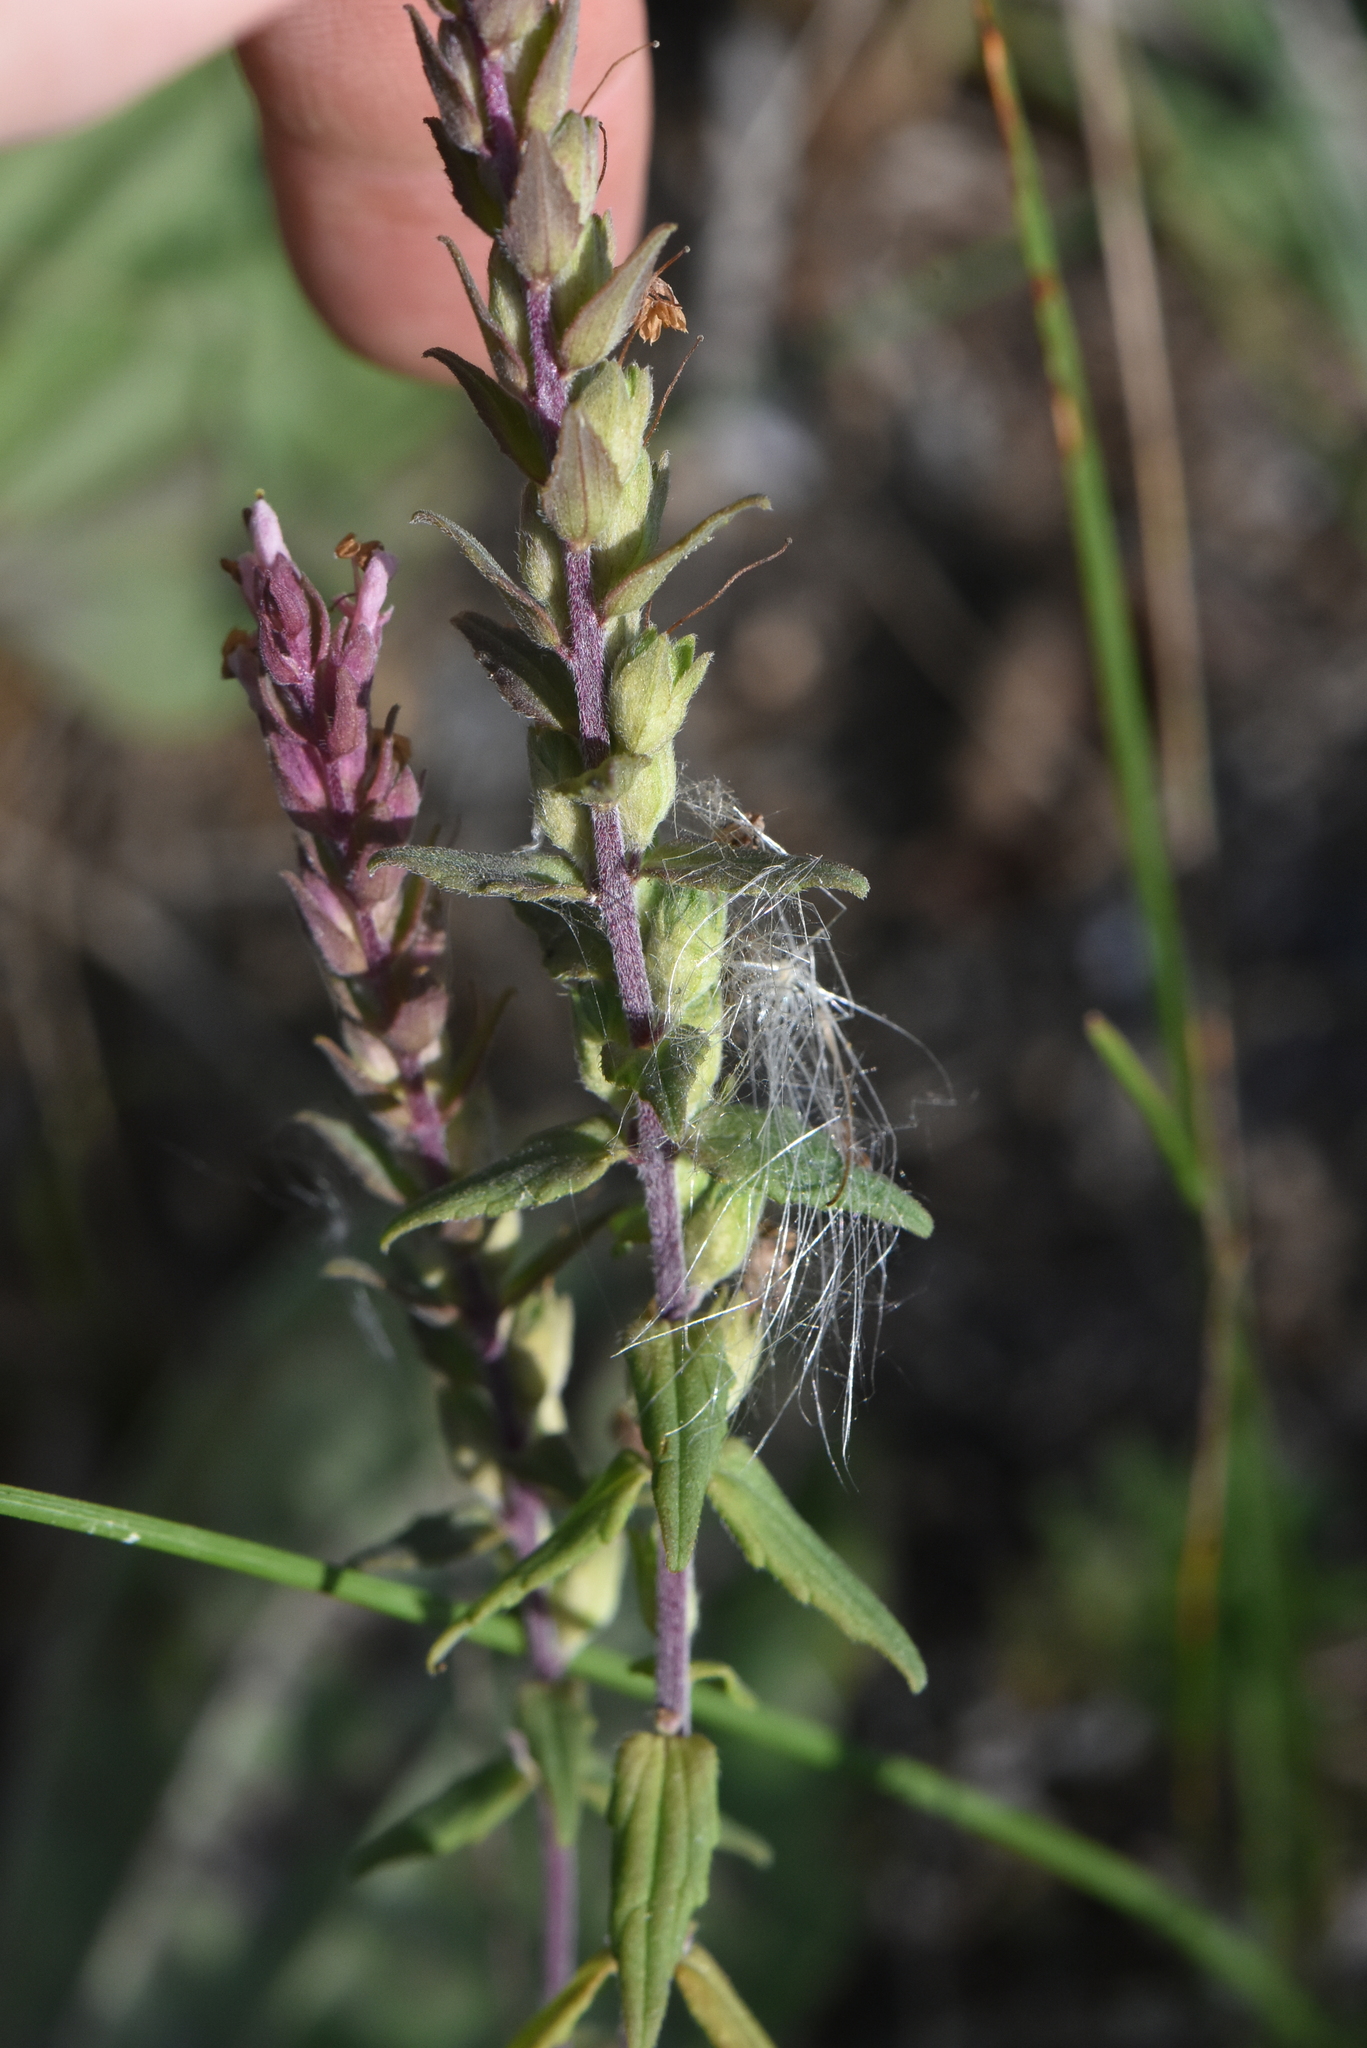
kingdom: Plantae
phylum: Tracheophyta
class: Magnoliopsida
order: Lamiales
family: Orobanchaceae
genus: Odontites
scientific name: Odontites vulgaris
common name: Broomrape
